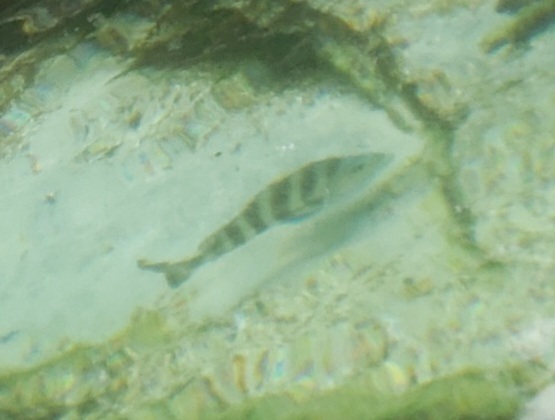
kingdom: Animalia
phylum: Chordata
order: Perciformes
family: Sparidae
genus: Archosargus
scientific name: Archosargus probatocephalus
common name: Sheepshead
